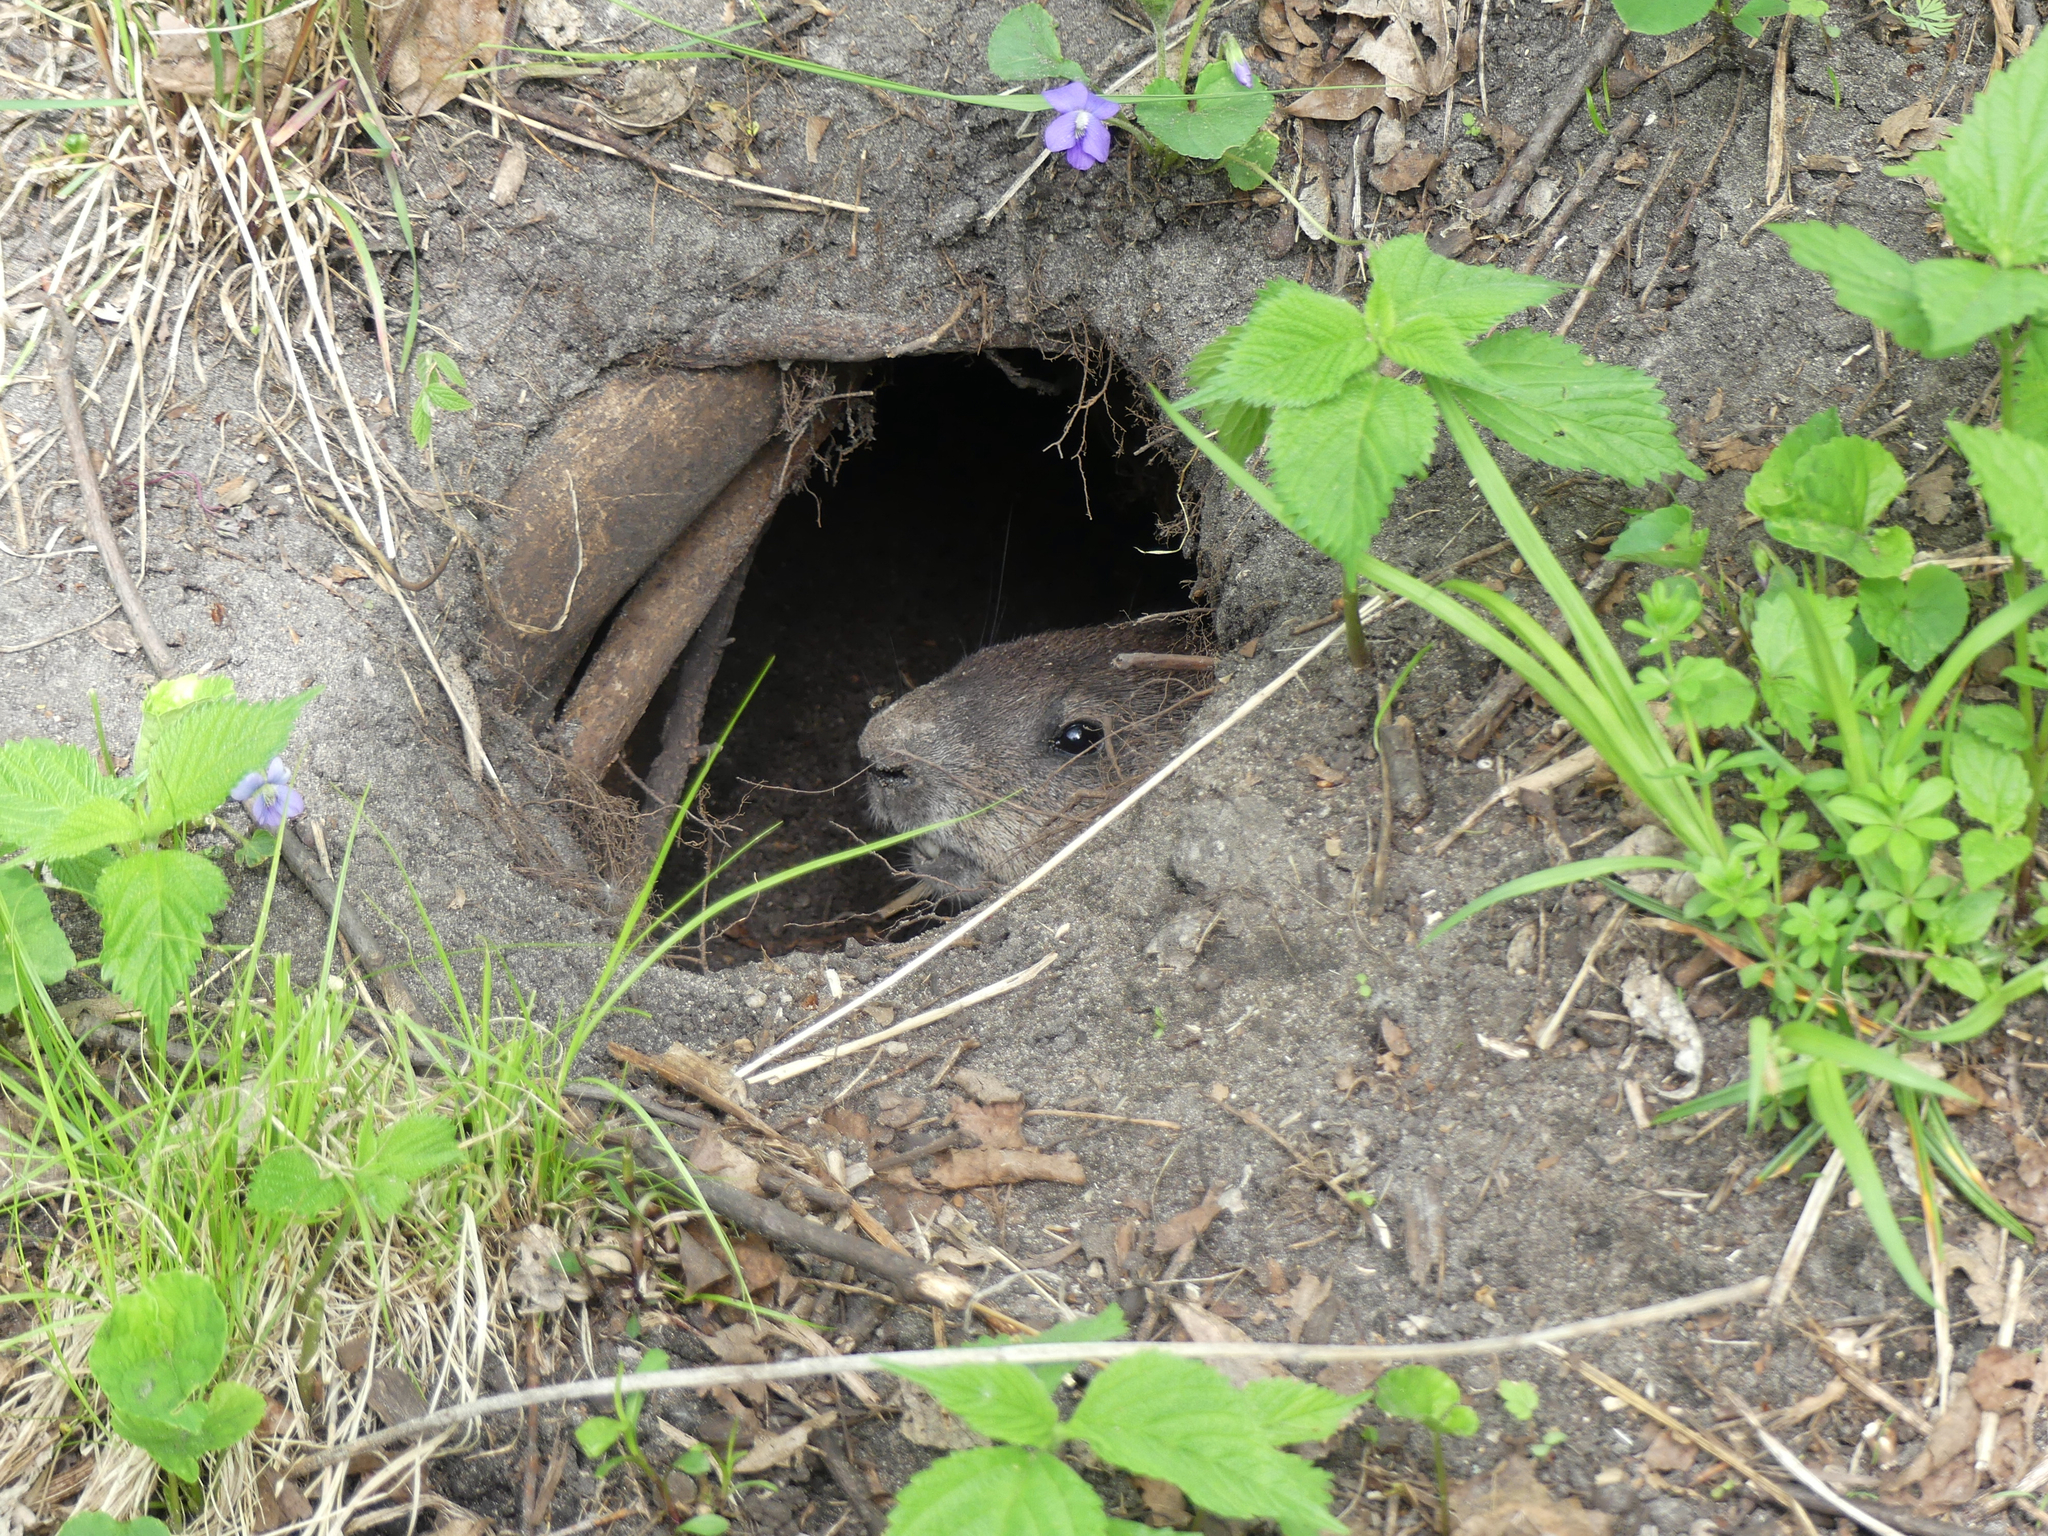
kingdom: Animalia
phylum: Chordata
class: Mammalia
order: Rodentia
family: Sciuridae
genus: Marmota
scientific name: Marmota monax
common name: Groundhog
